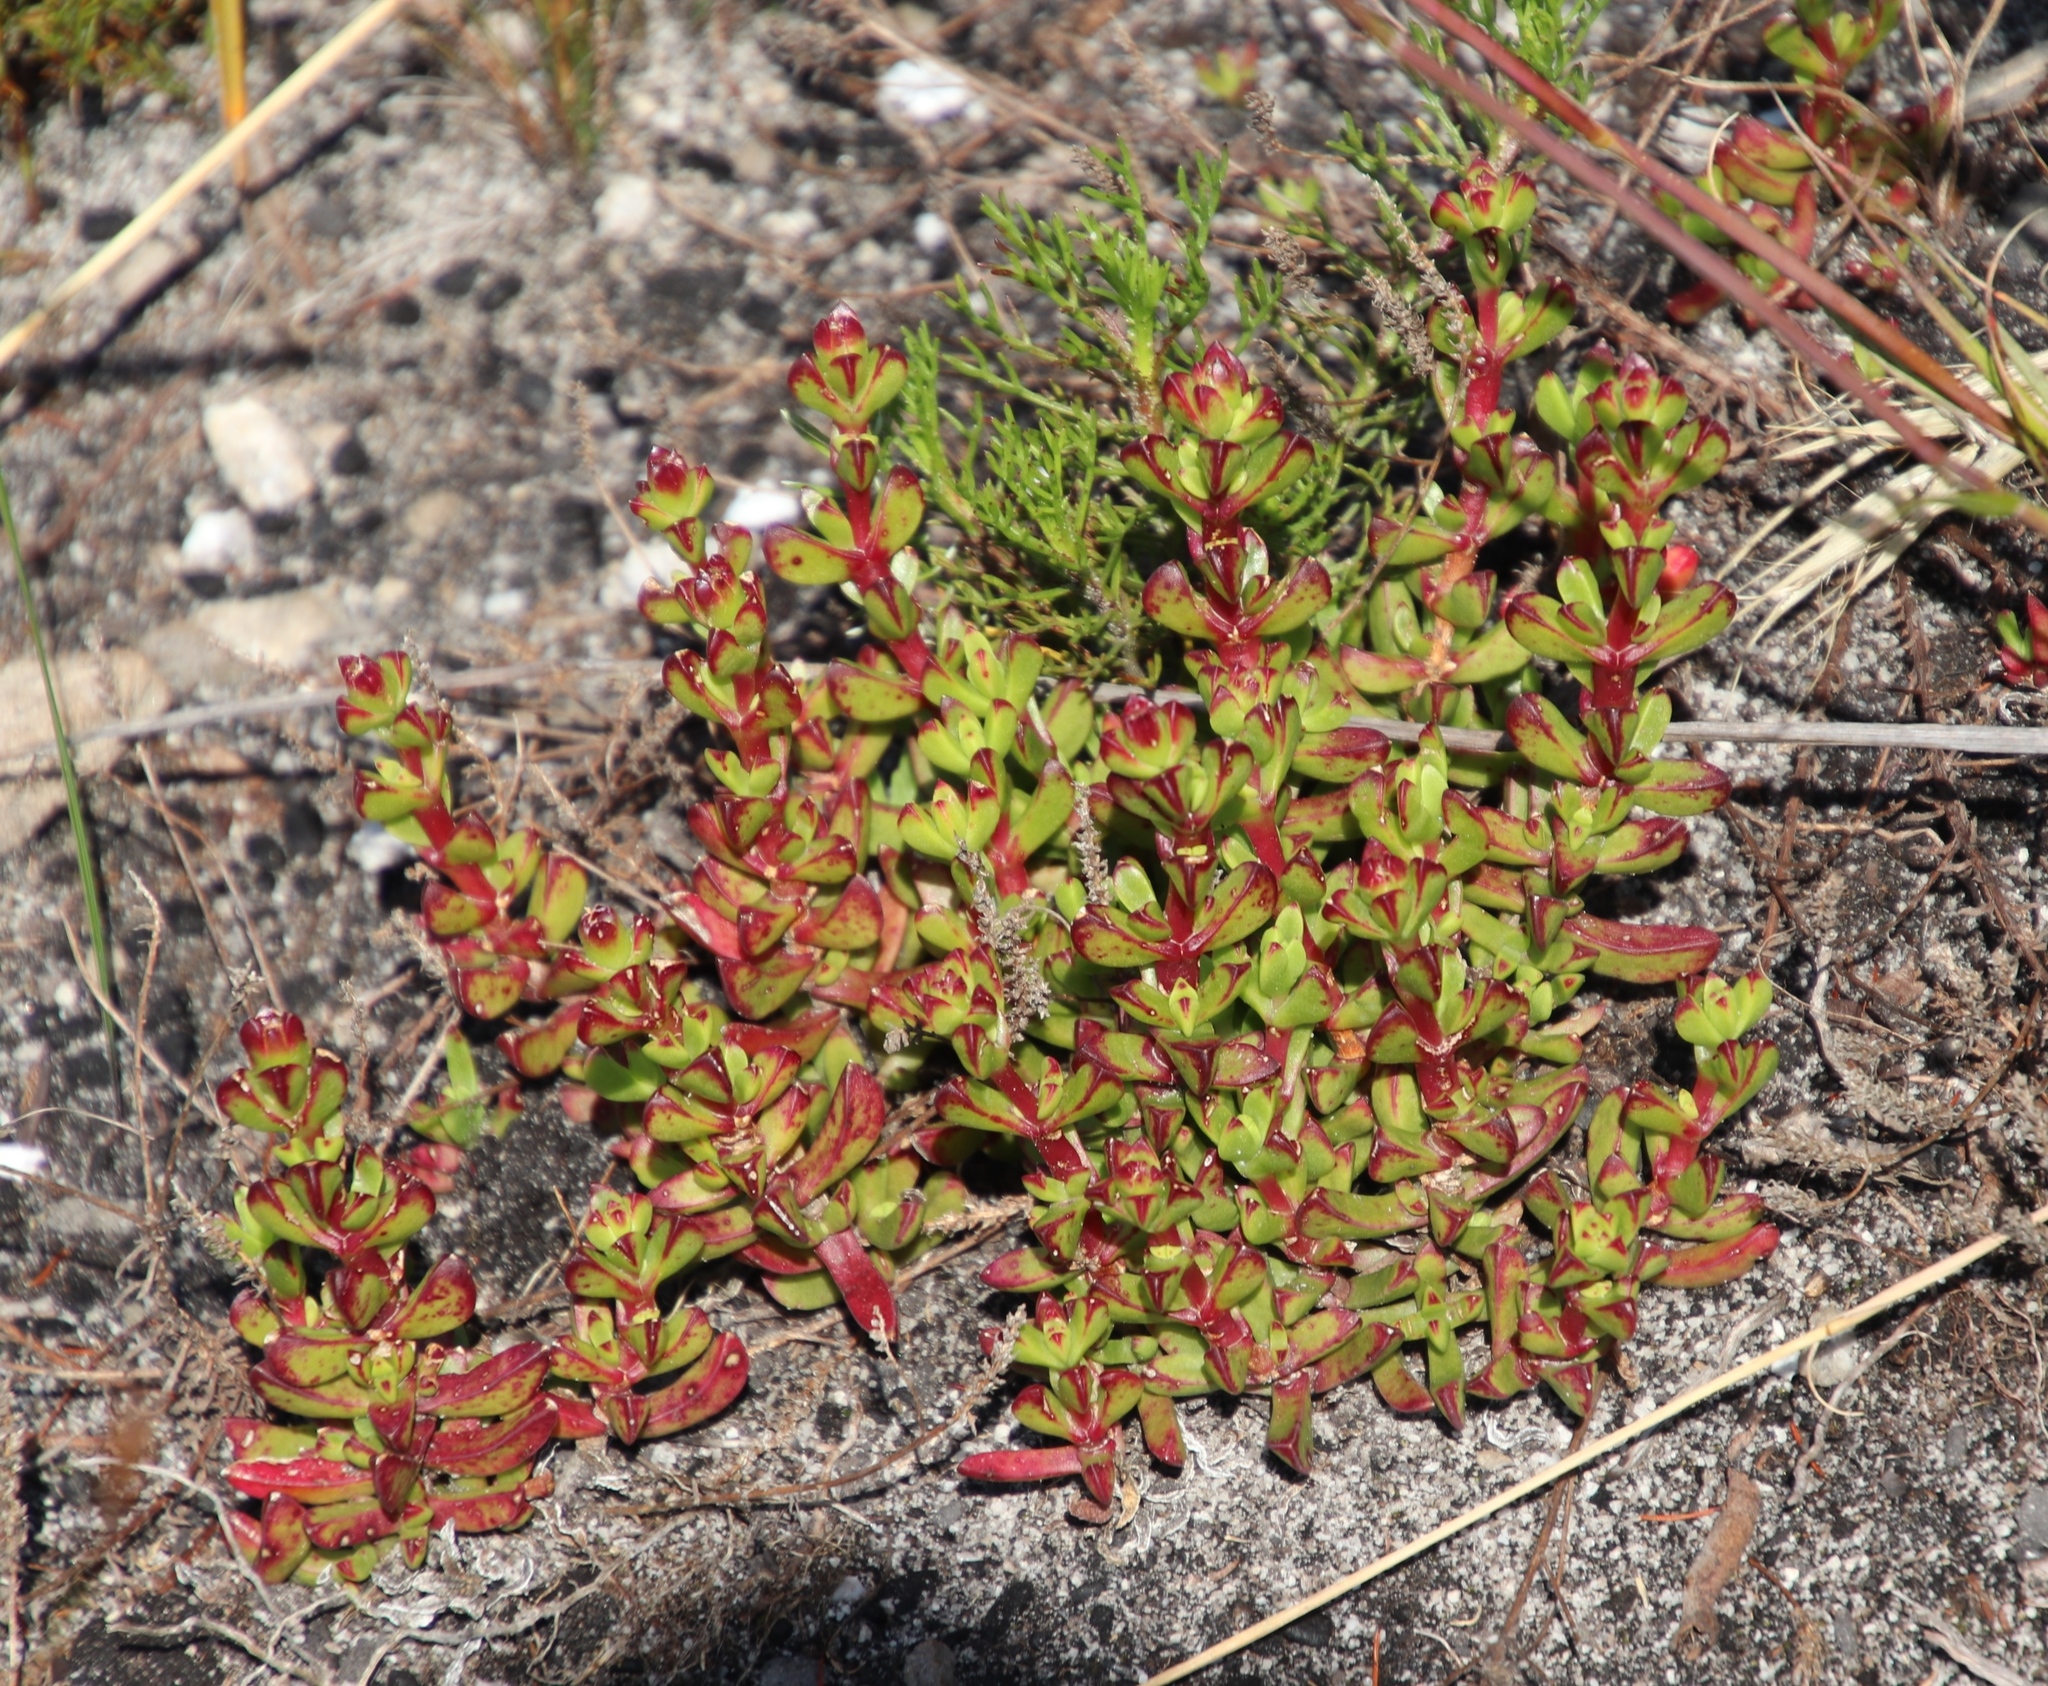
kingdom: Plantae
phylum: Tracheophyta
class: Magnoliopsida
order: Caryophyllales
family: Aizoaceae
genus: Erepsia
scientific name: Erepsia inclaudens
